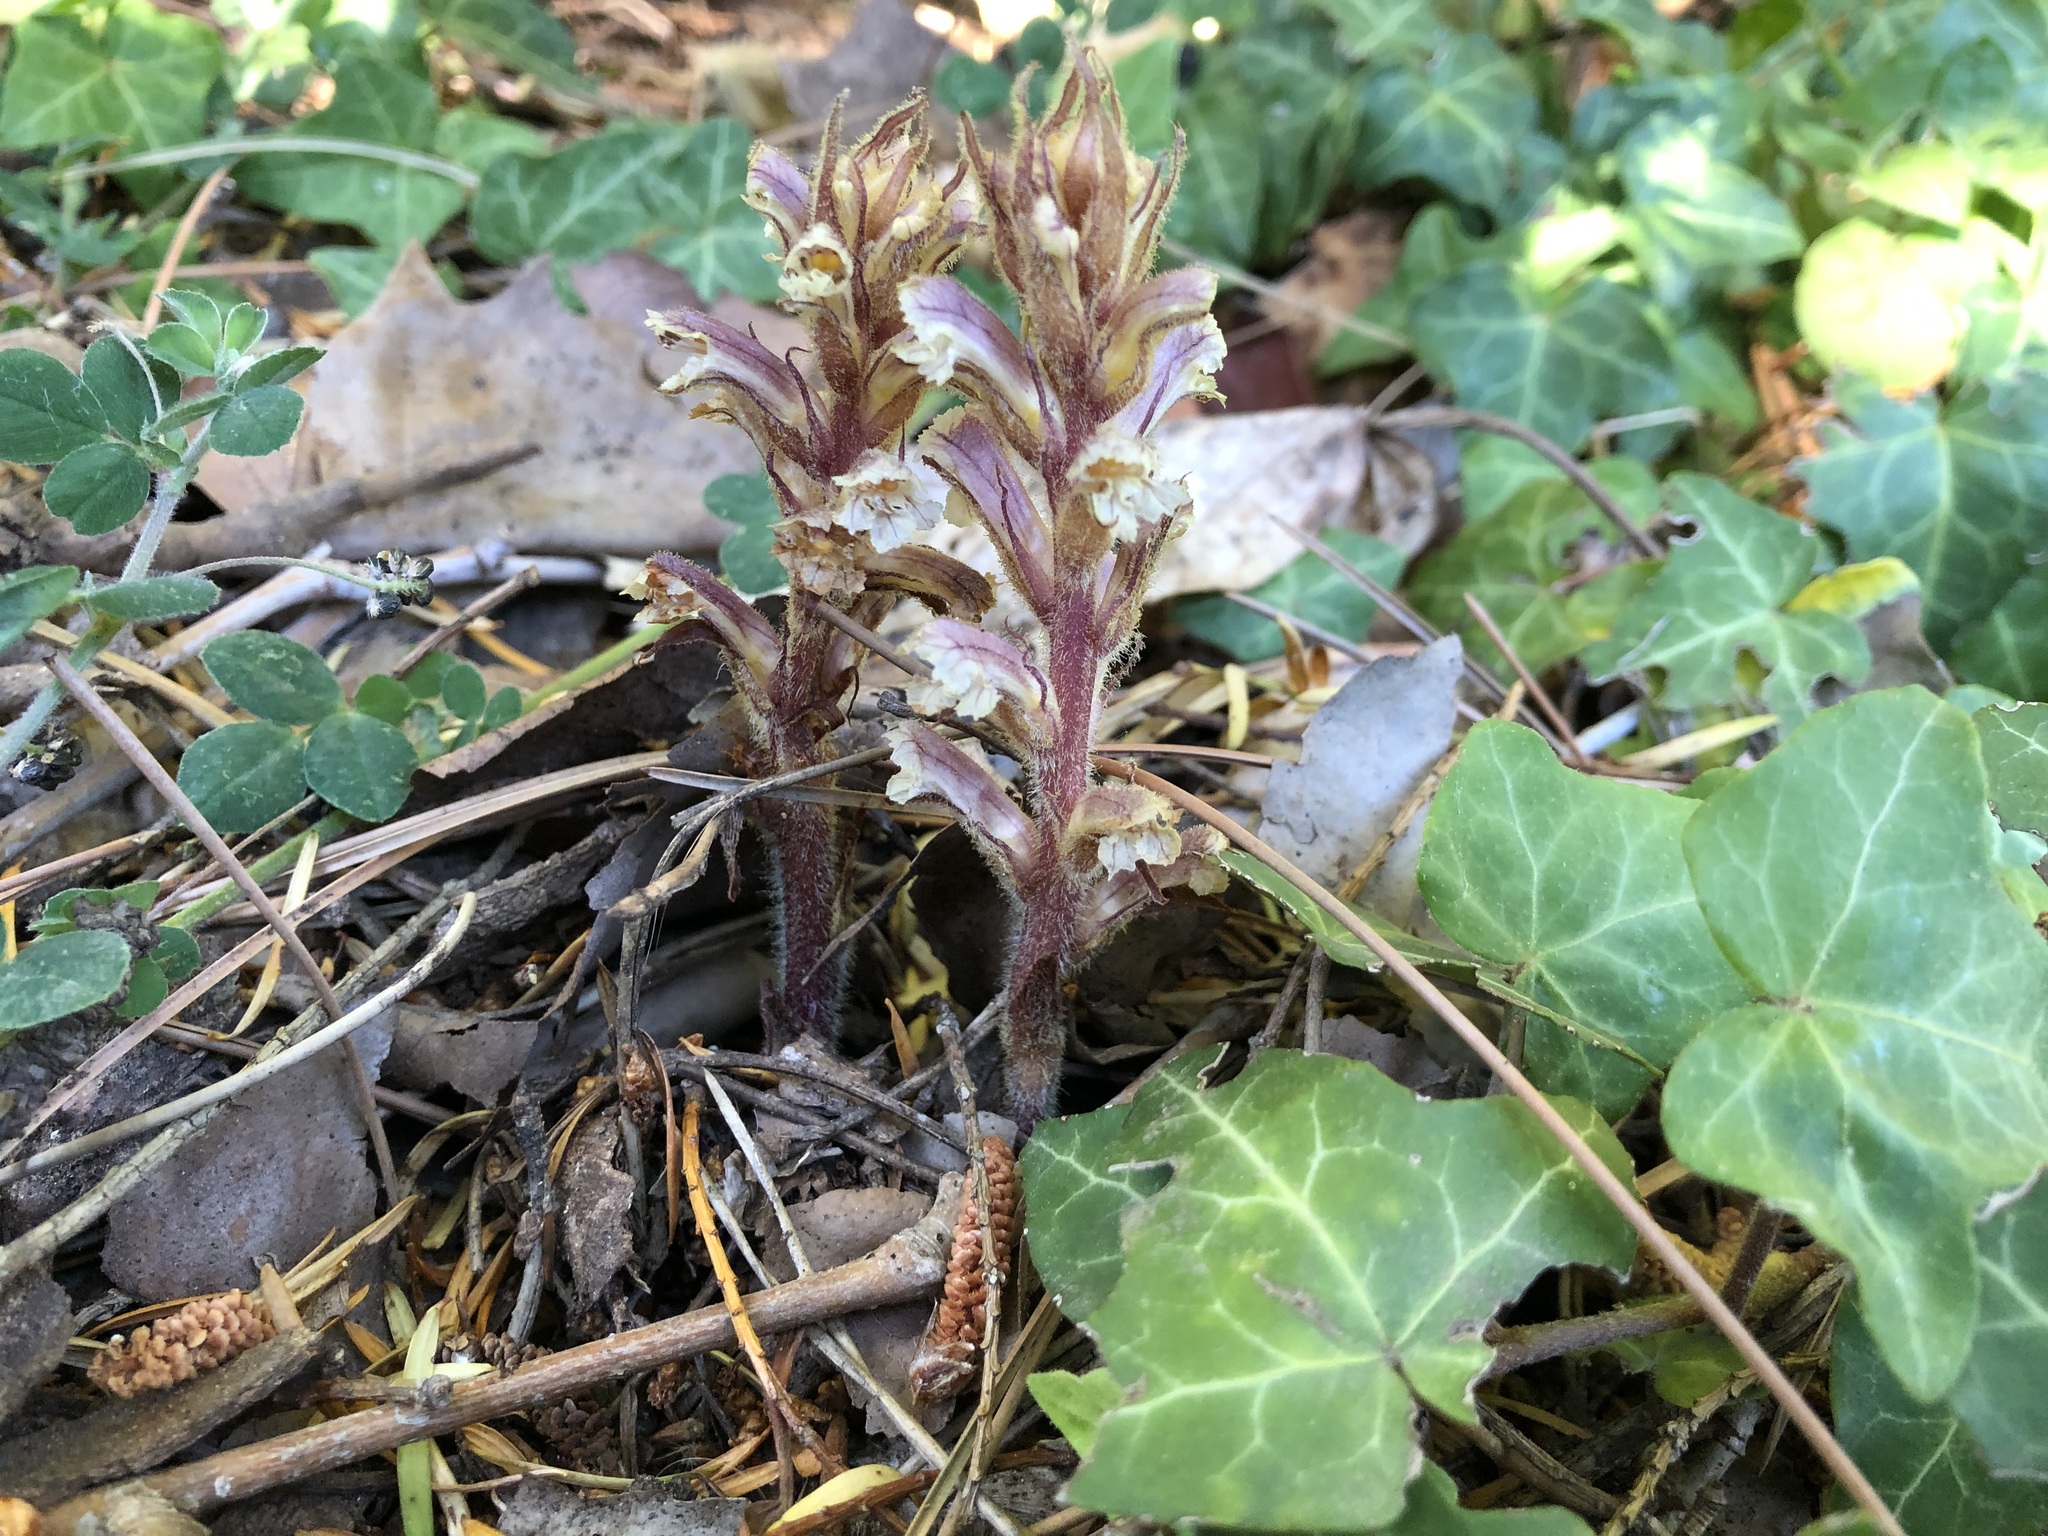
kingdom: Plantae
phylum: Tracheophyta
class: Magnoliopsida
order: Lamiales
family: Orobanchaceae
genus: Orobanche
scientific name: Orobanche hederae
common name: Ivy broomrape
